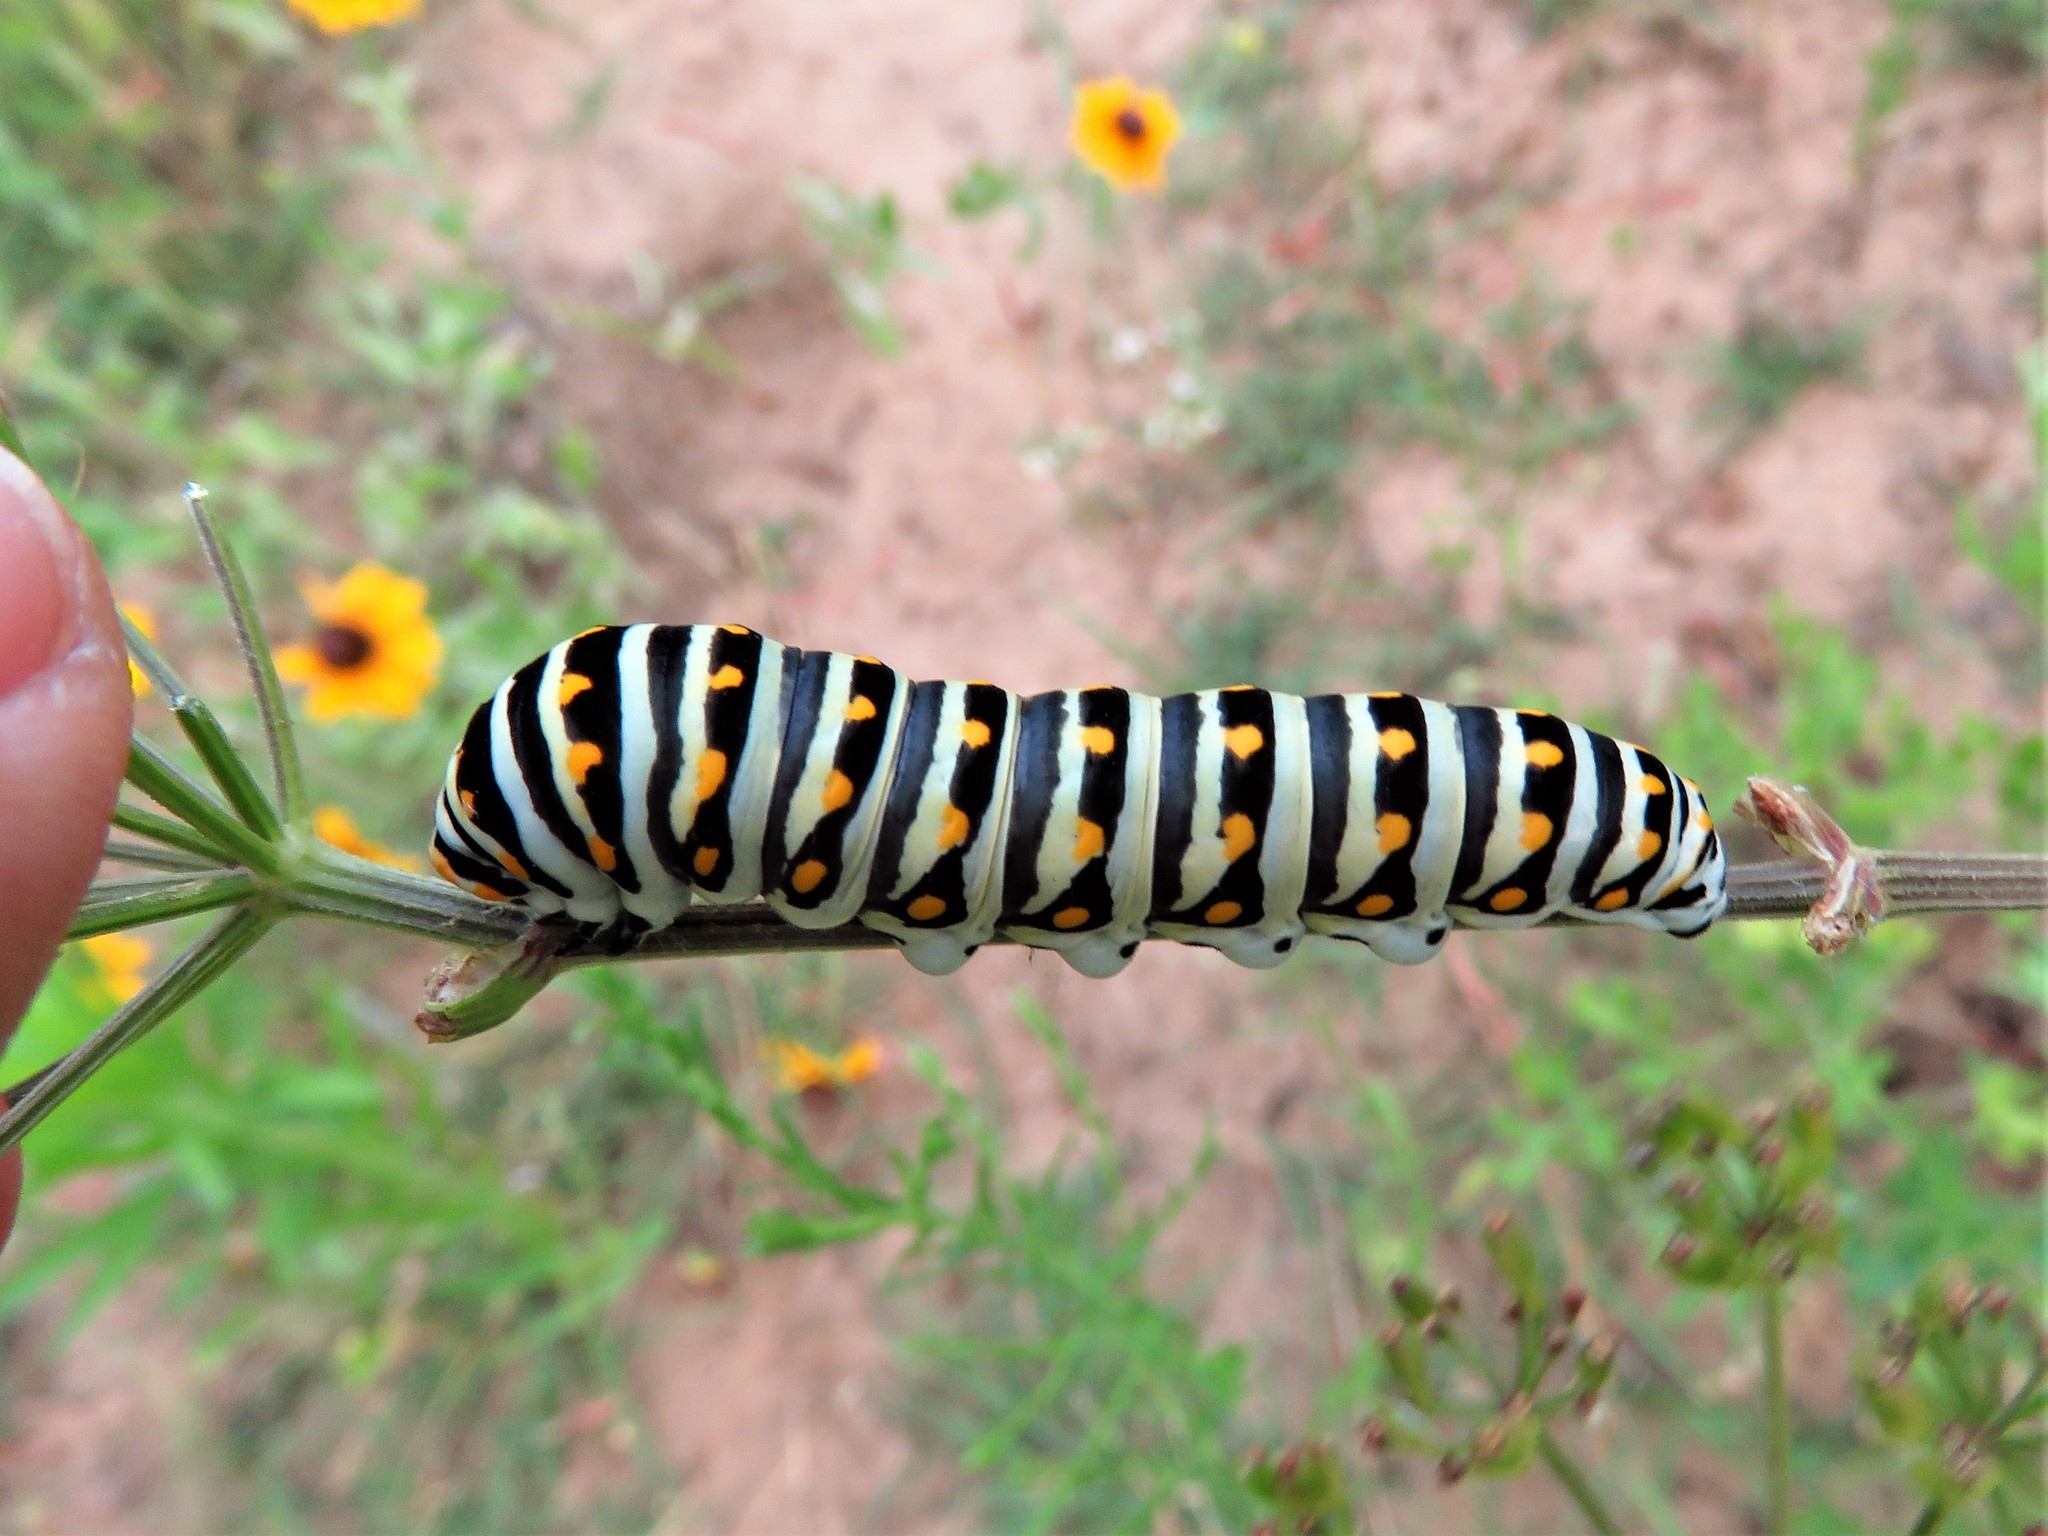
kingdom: Animalia
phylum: Arthropoda
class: Insecta
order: Lepidoptera
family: Papilionidae
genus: Papilio
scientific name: Papilio polyxenes
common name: Black swallowtail
